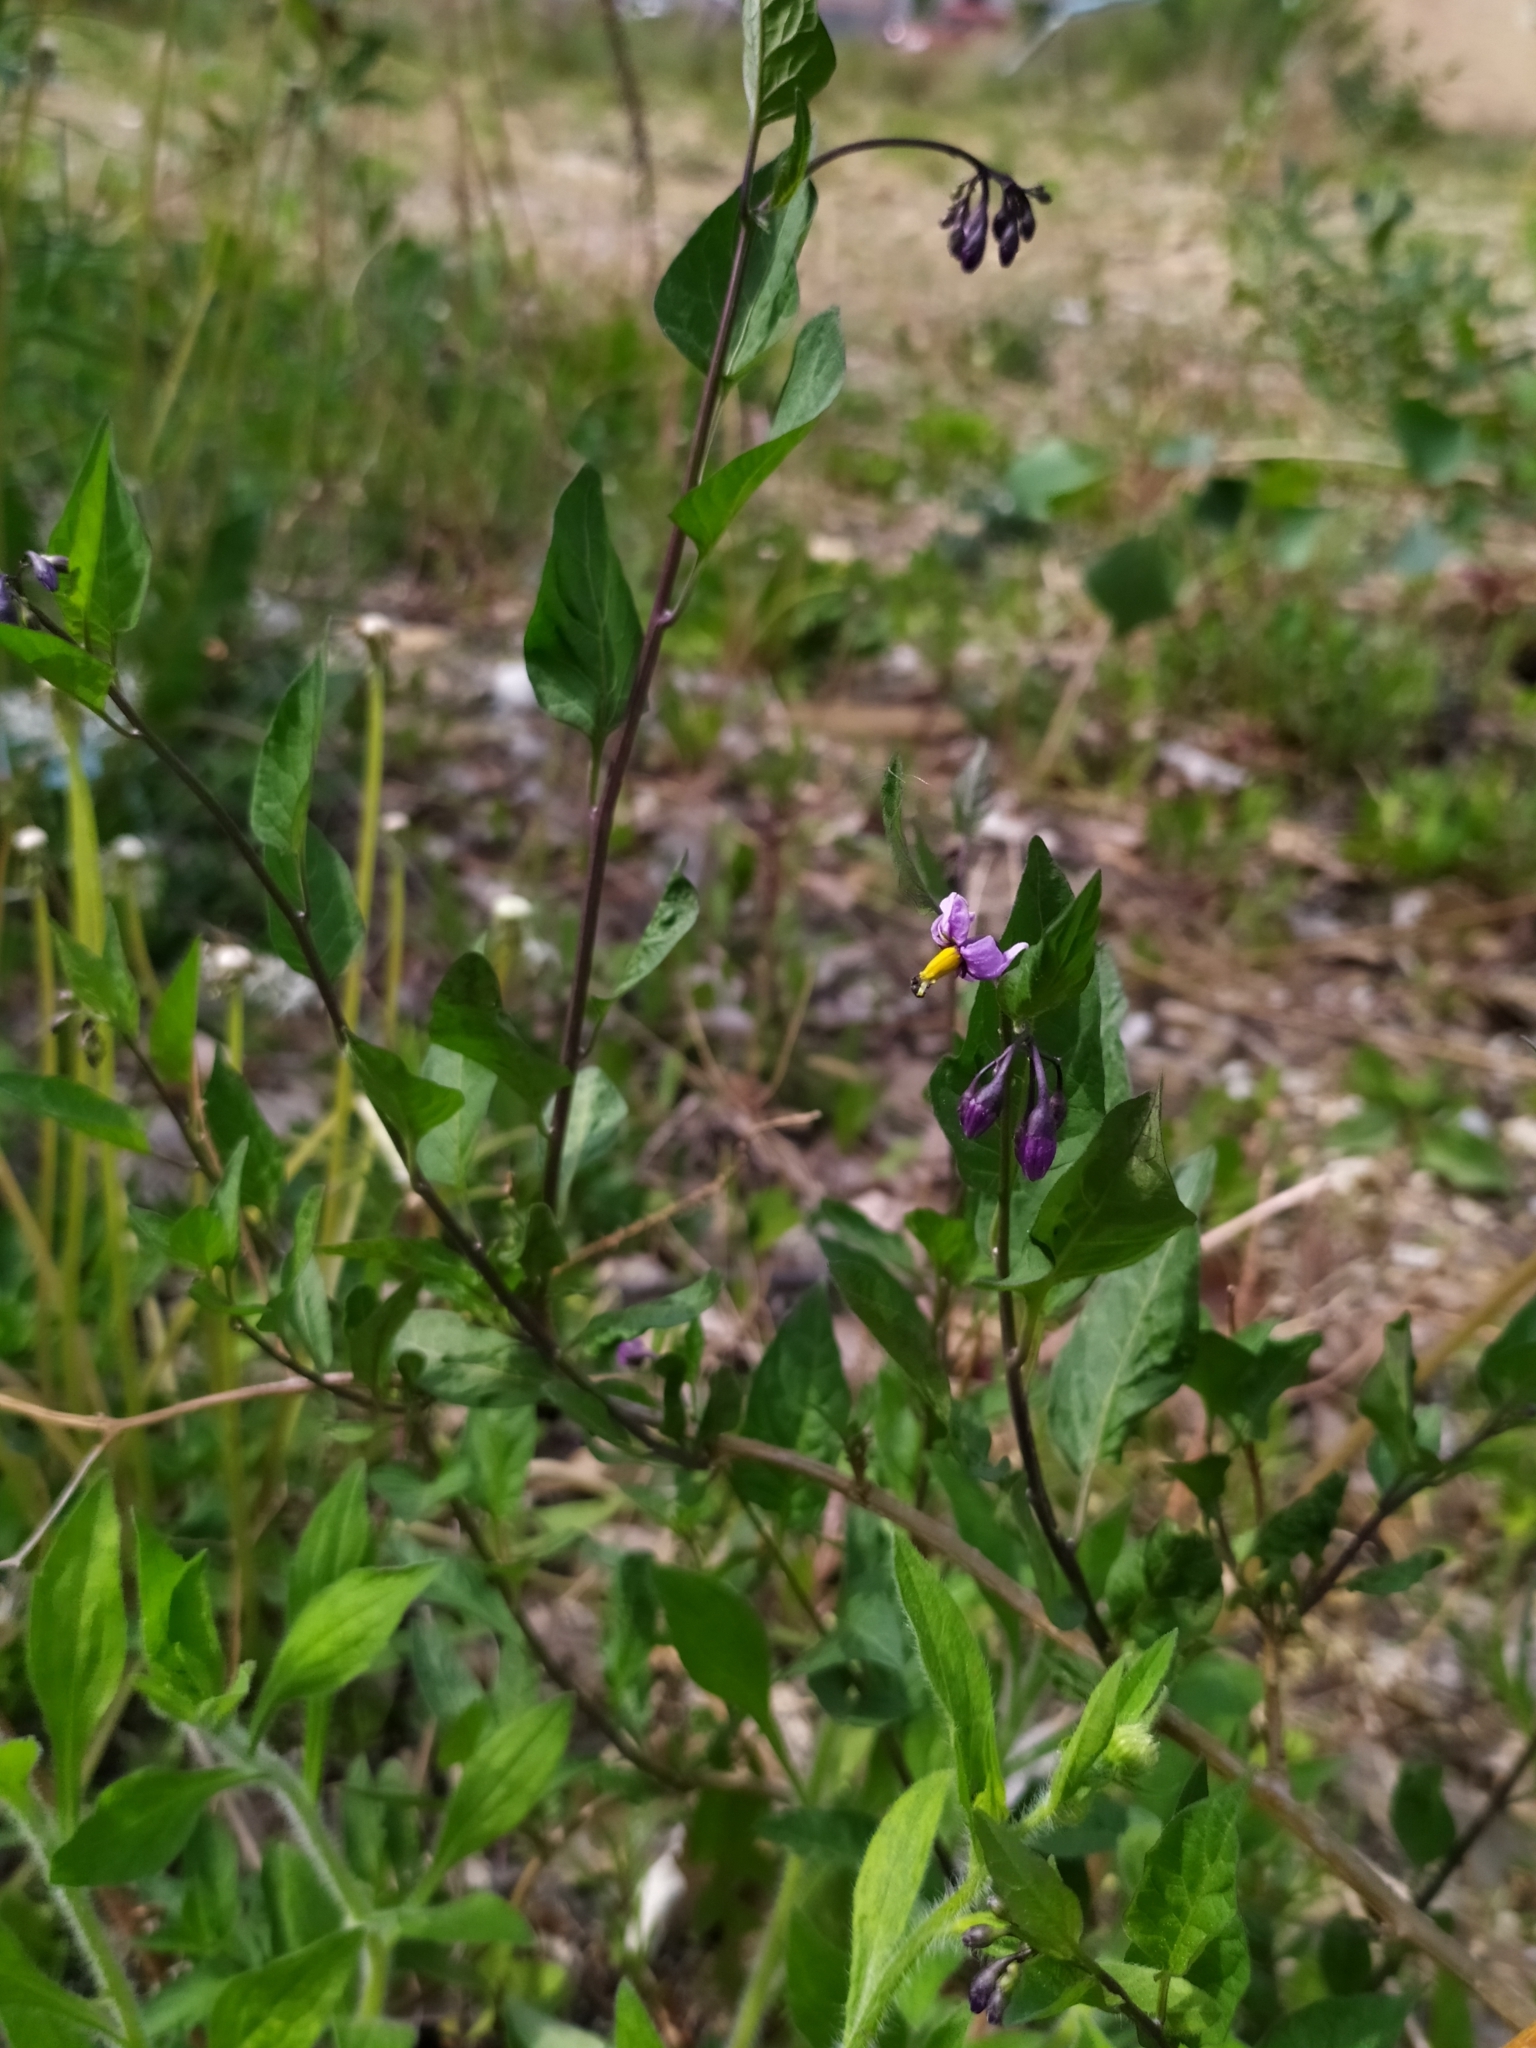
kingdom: Plantae
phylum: Tracheophyta
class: Magnoliopsida
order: Solanales
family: Solanaceae
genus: Solanum
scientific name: Solanum dulcamara
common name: Climbing nightshade
